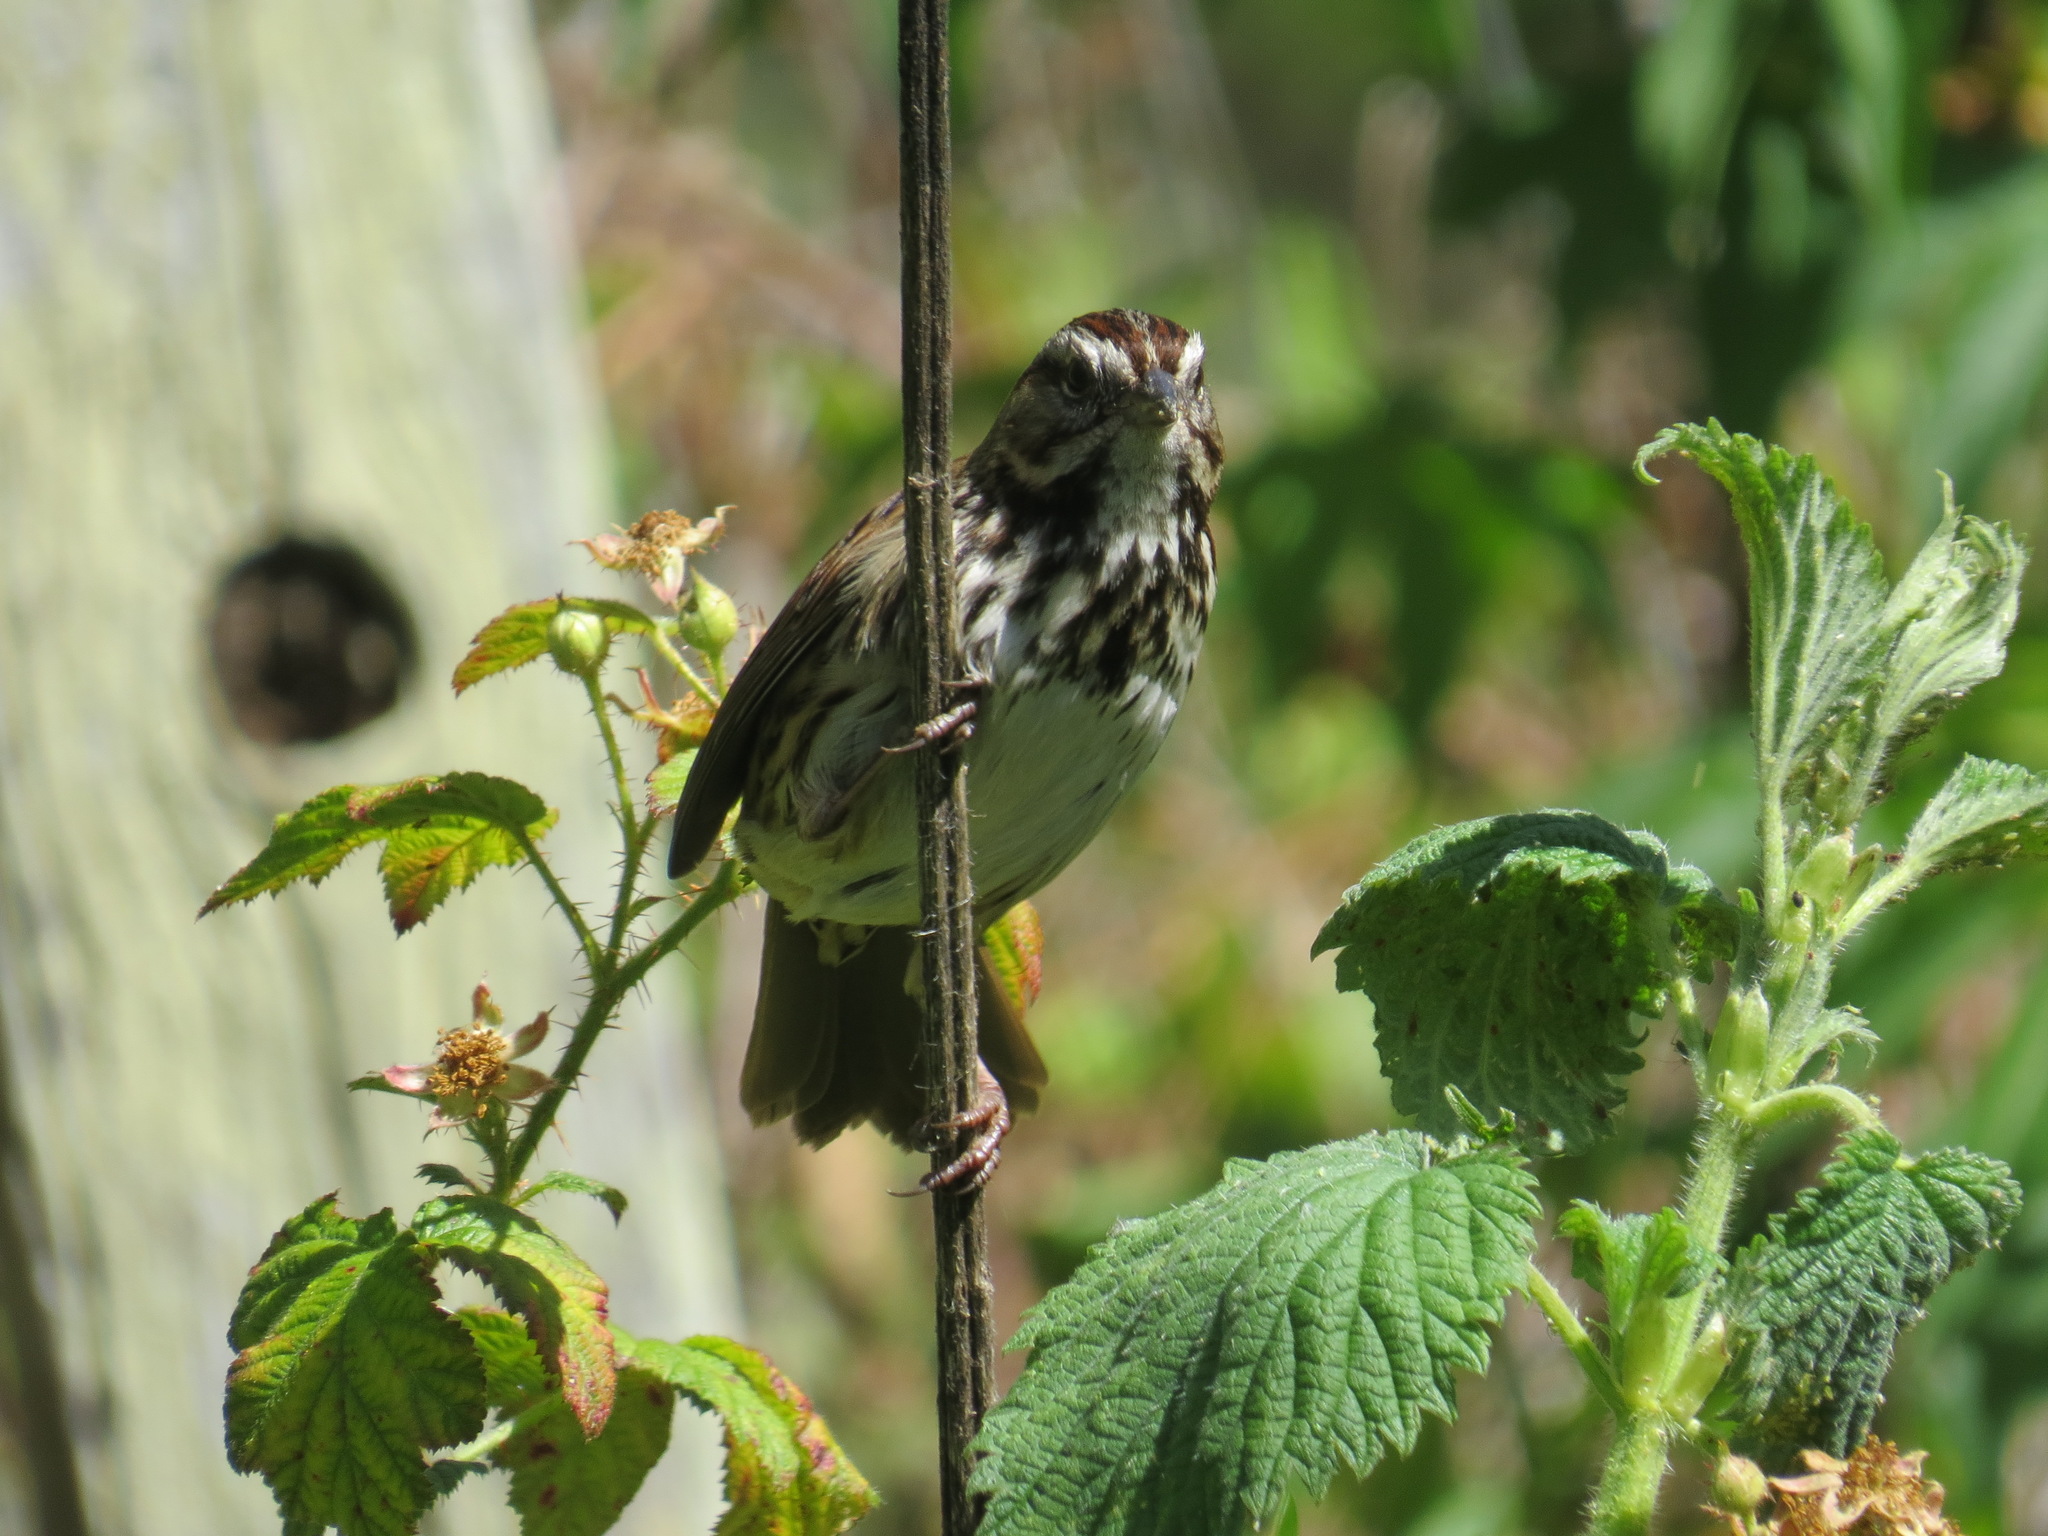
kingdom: Animalia
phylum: Chordata
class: Aves
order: Passeriformes
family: Passerellidae
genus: Melospiza
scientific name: Melospiza melodia
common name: Song sparrow
